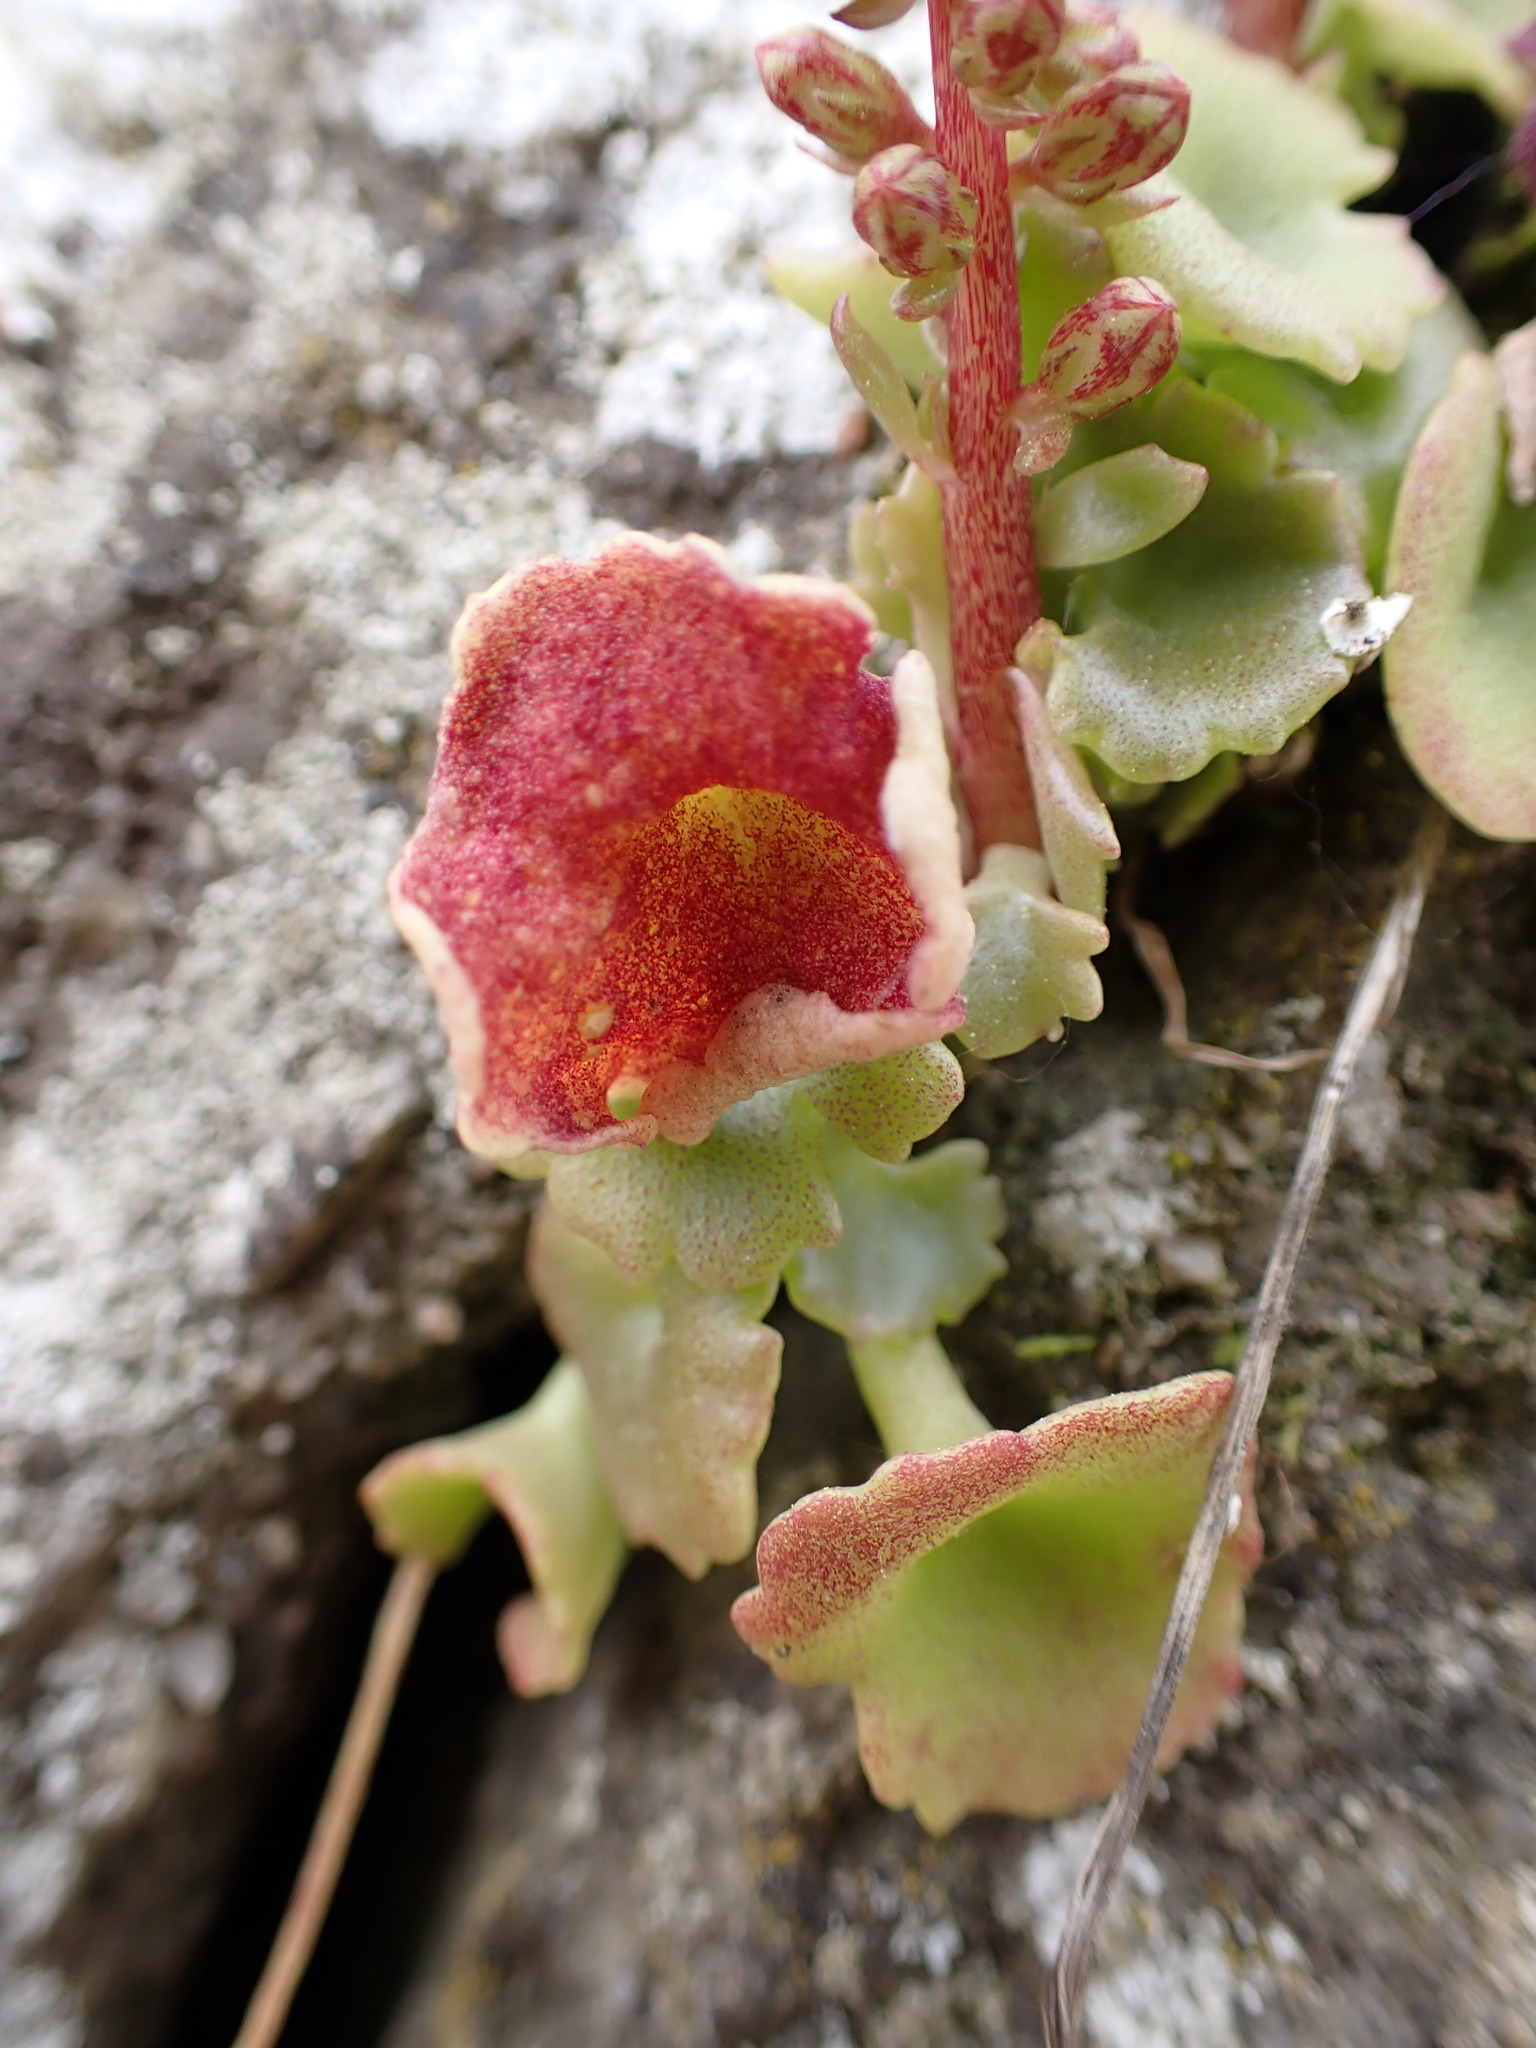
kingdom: Plantae
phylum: Tracheophyta
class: Magnoliopsida
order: Saxifragales
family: Crassulaceae
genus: Umbilicus
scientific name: Umbilicus rupestris
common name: Navelwort
